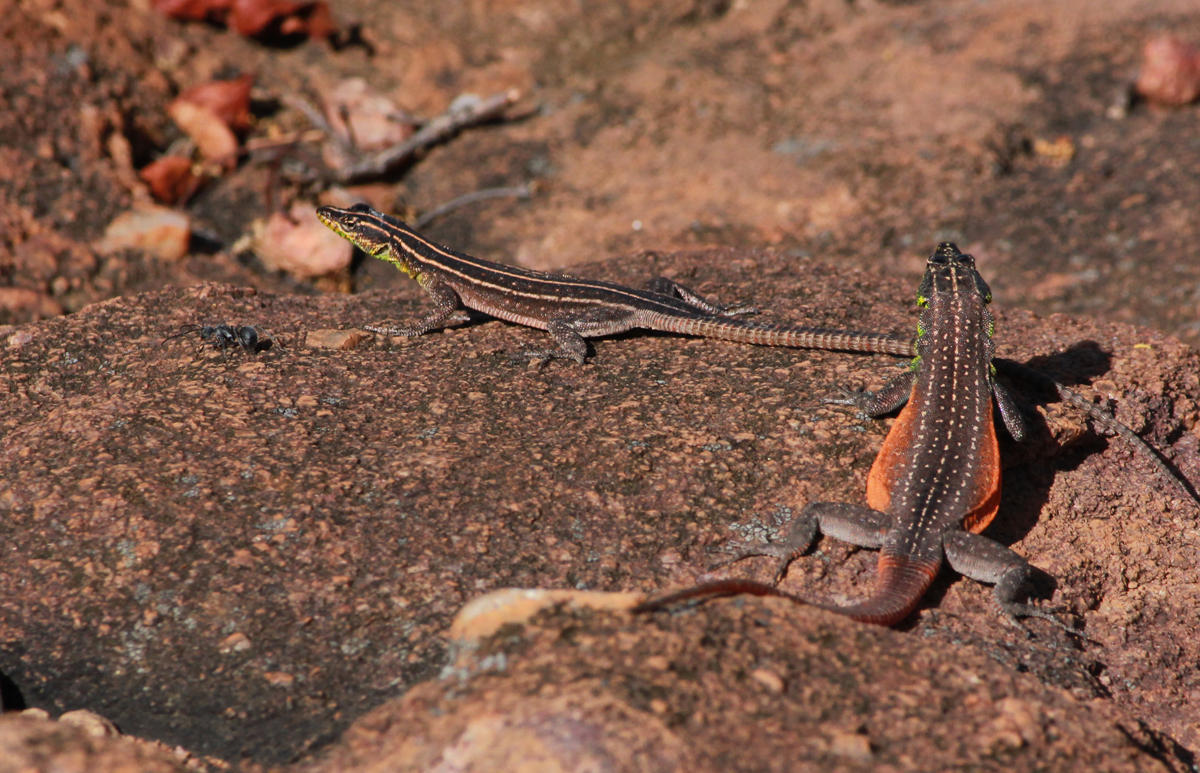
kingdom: Animalia
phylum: Chordata
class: Squamata
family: Cordylidae
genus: Platysaurus
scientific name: Platysaurus minor
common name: Waterberg flat lizard
